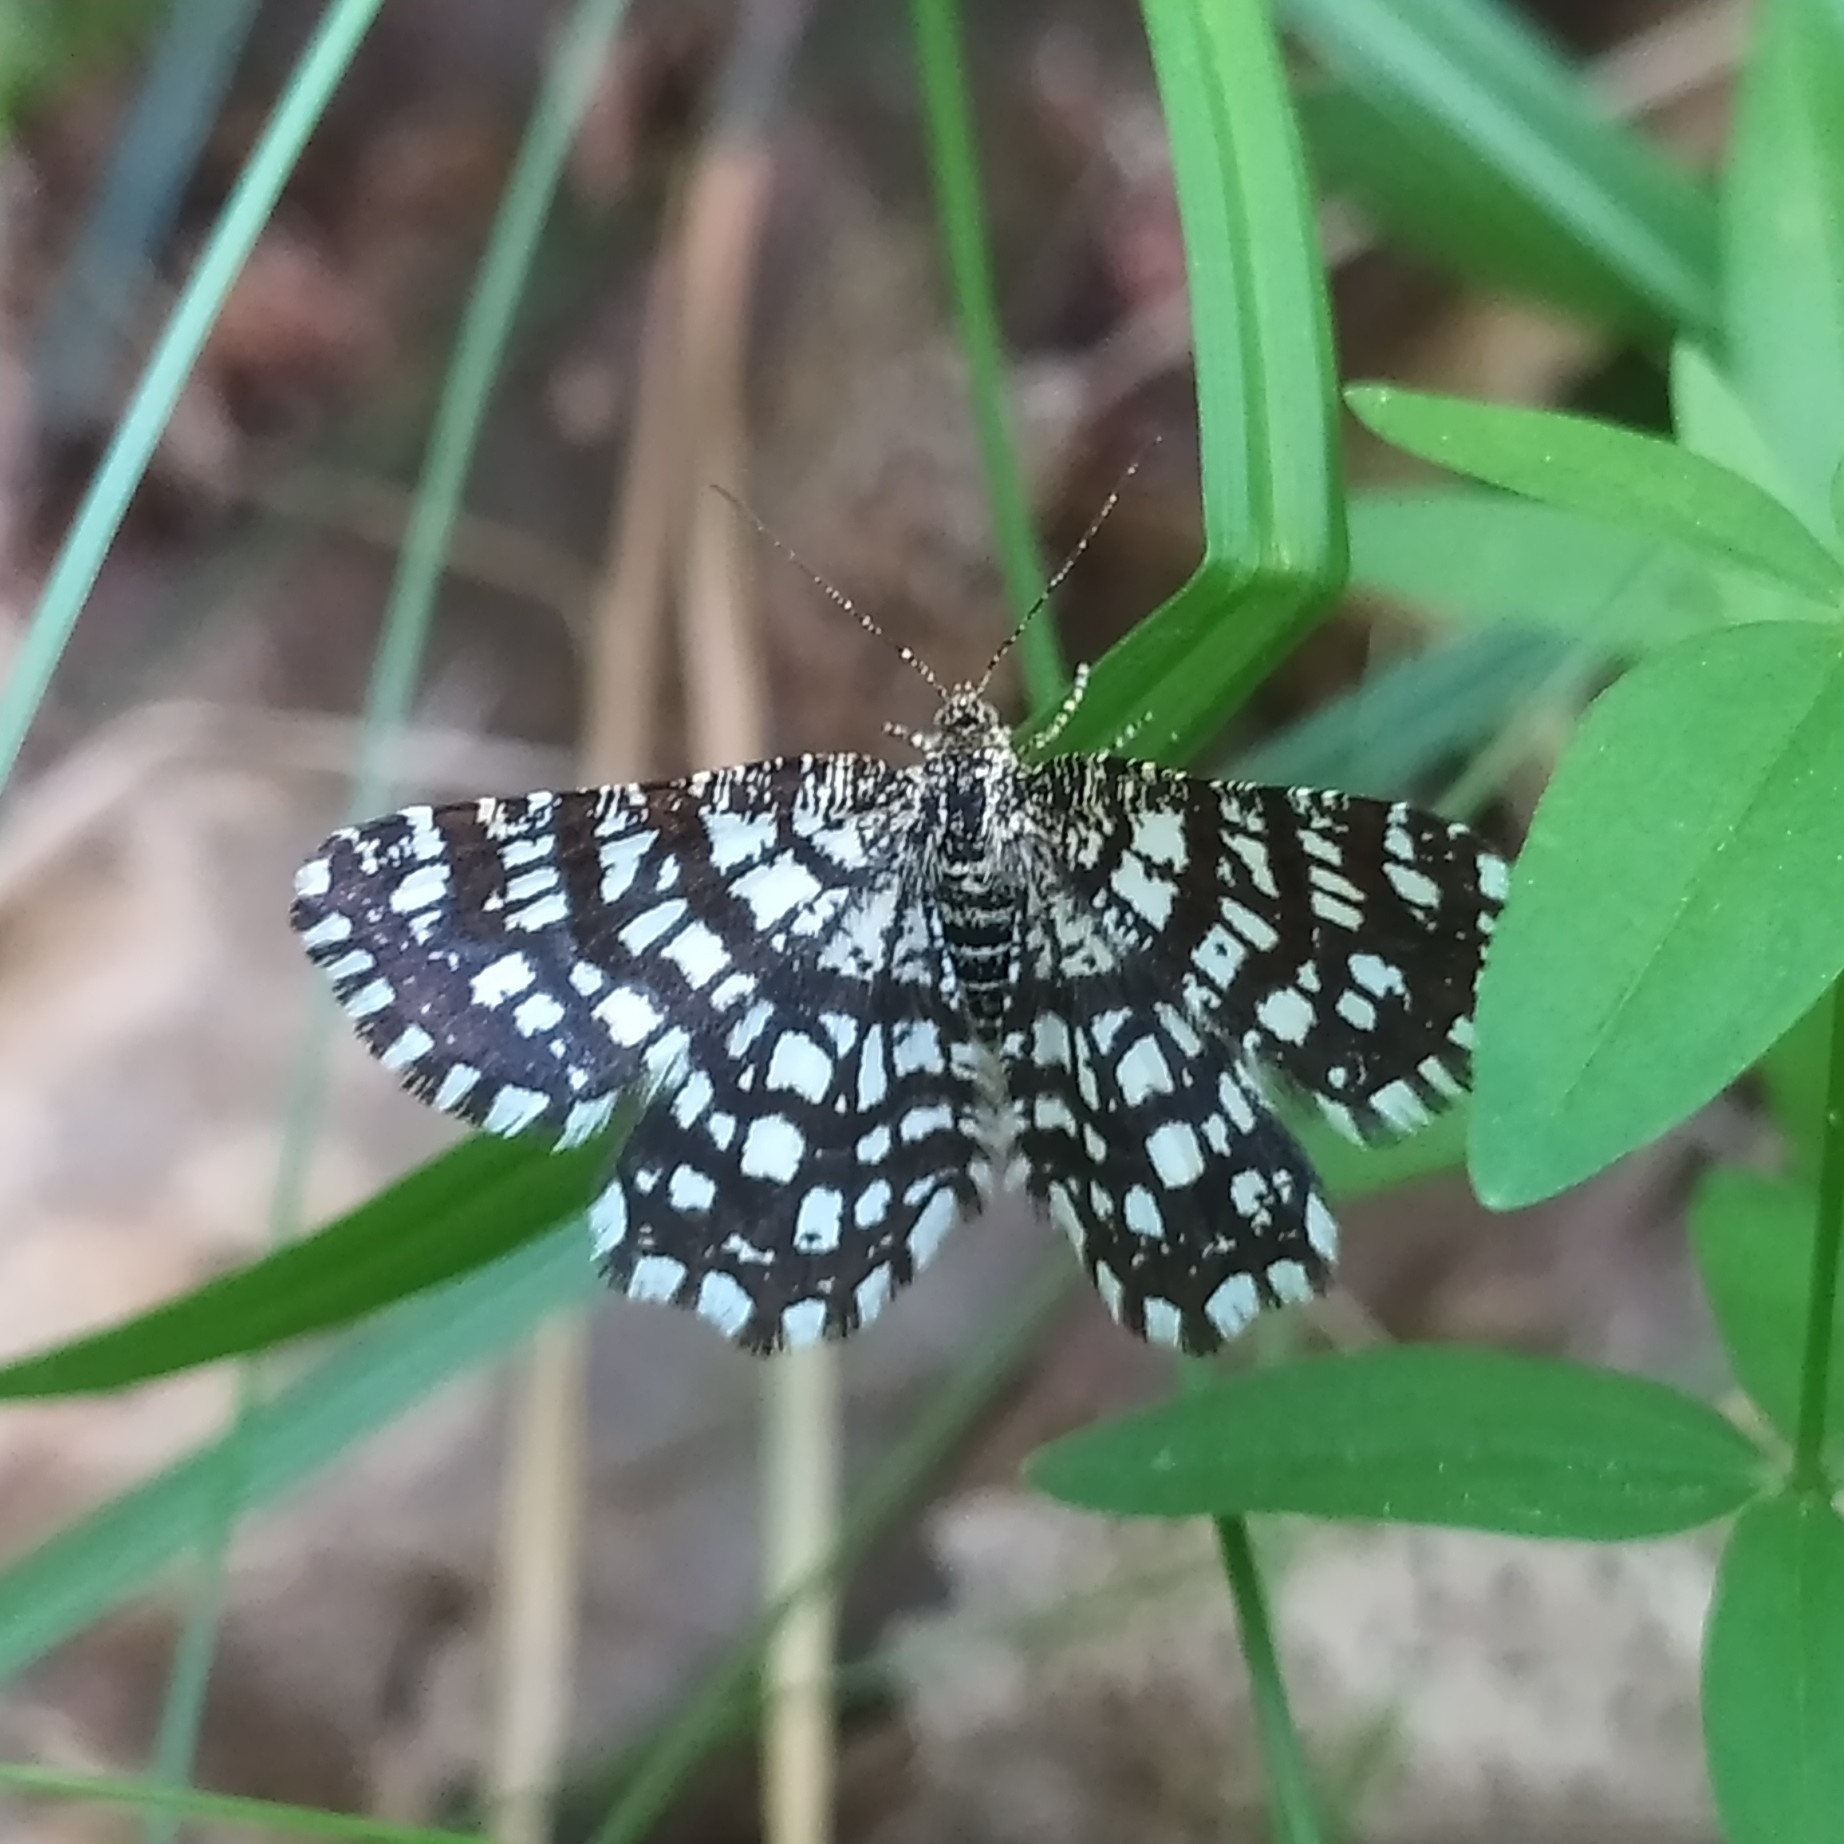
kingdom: Animalia
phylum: Arthropoda
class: Insecta
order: Lepidoptera
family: Geometridae
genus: Chiasmia
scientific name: Chiasmia clathrata
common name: Latticed heath
